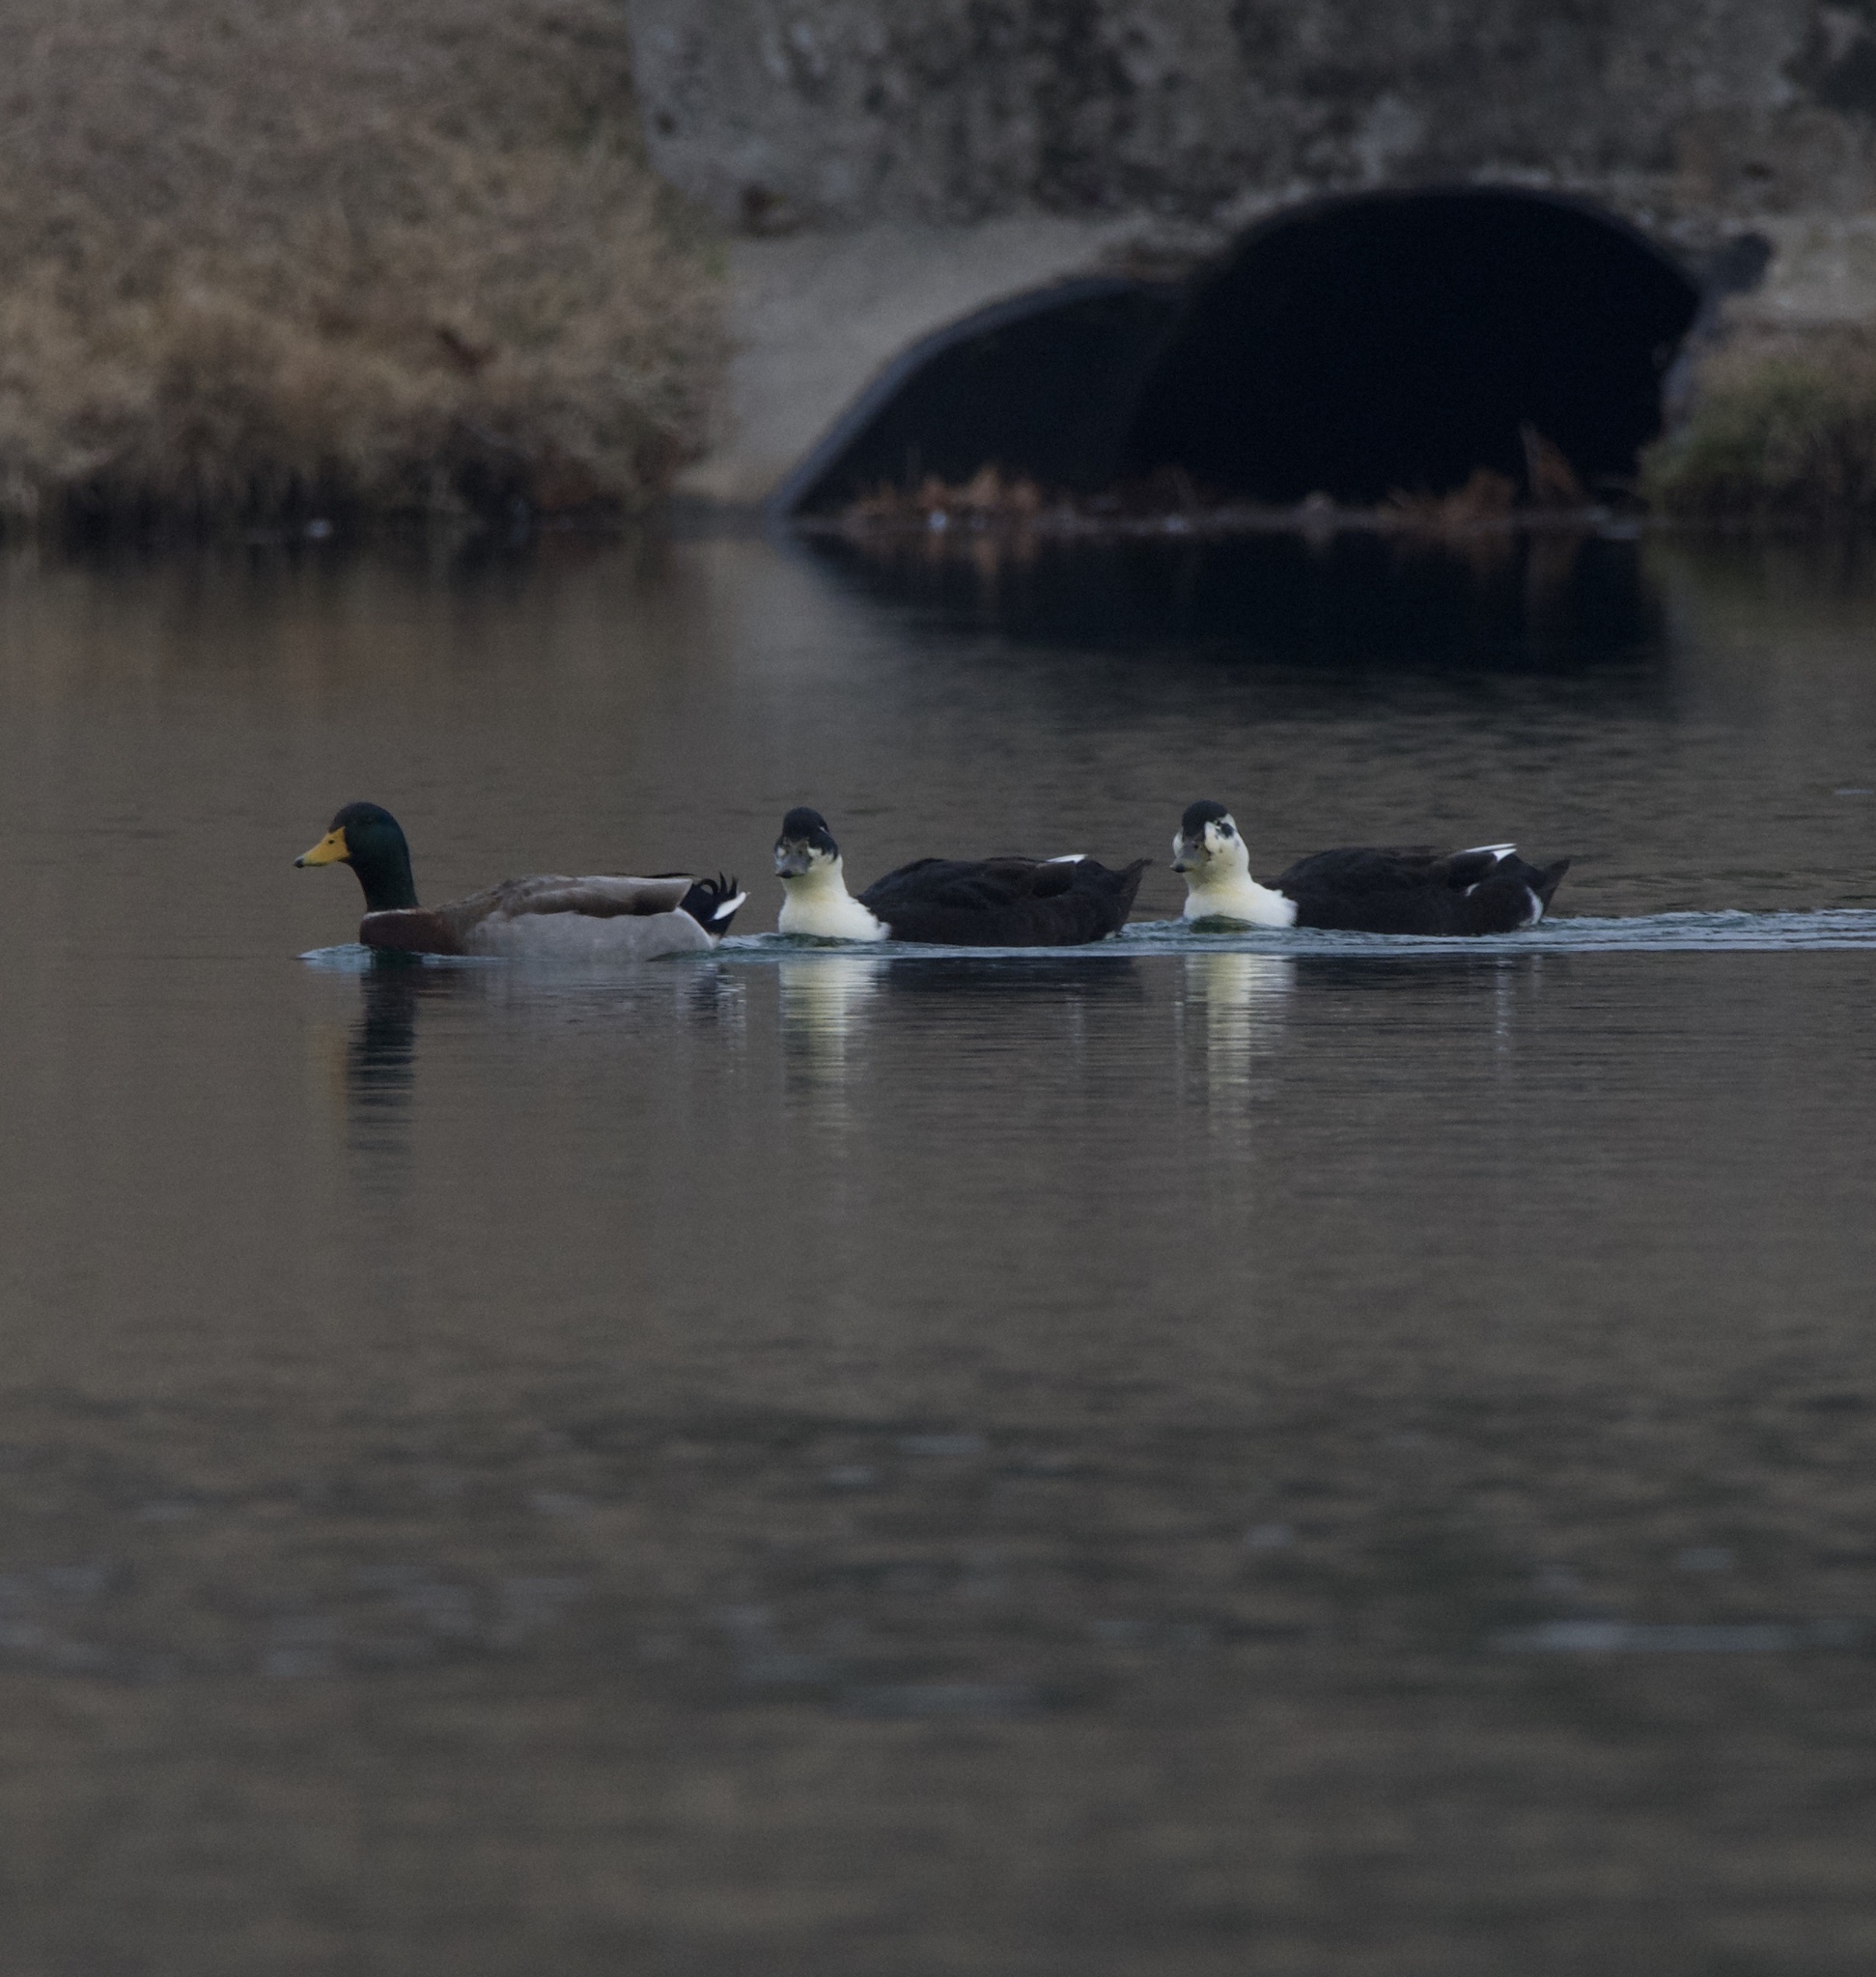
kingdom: Animalia
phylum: Chordata
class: Aves
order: Anseriformes
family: Anatidae
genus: Anas
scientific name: Anas platyrhynchos
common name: Mallard
